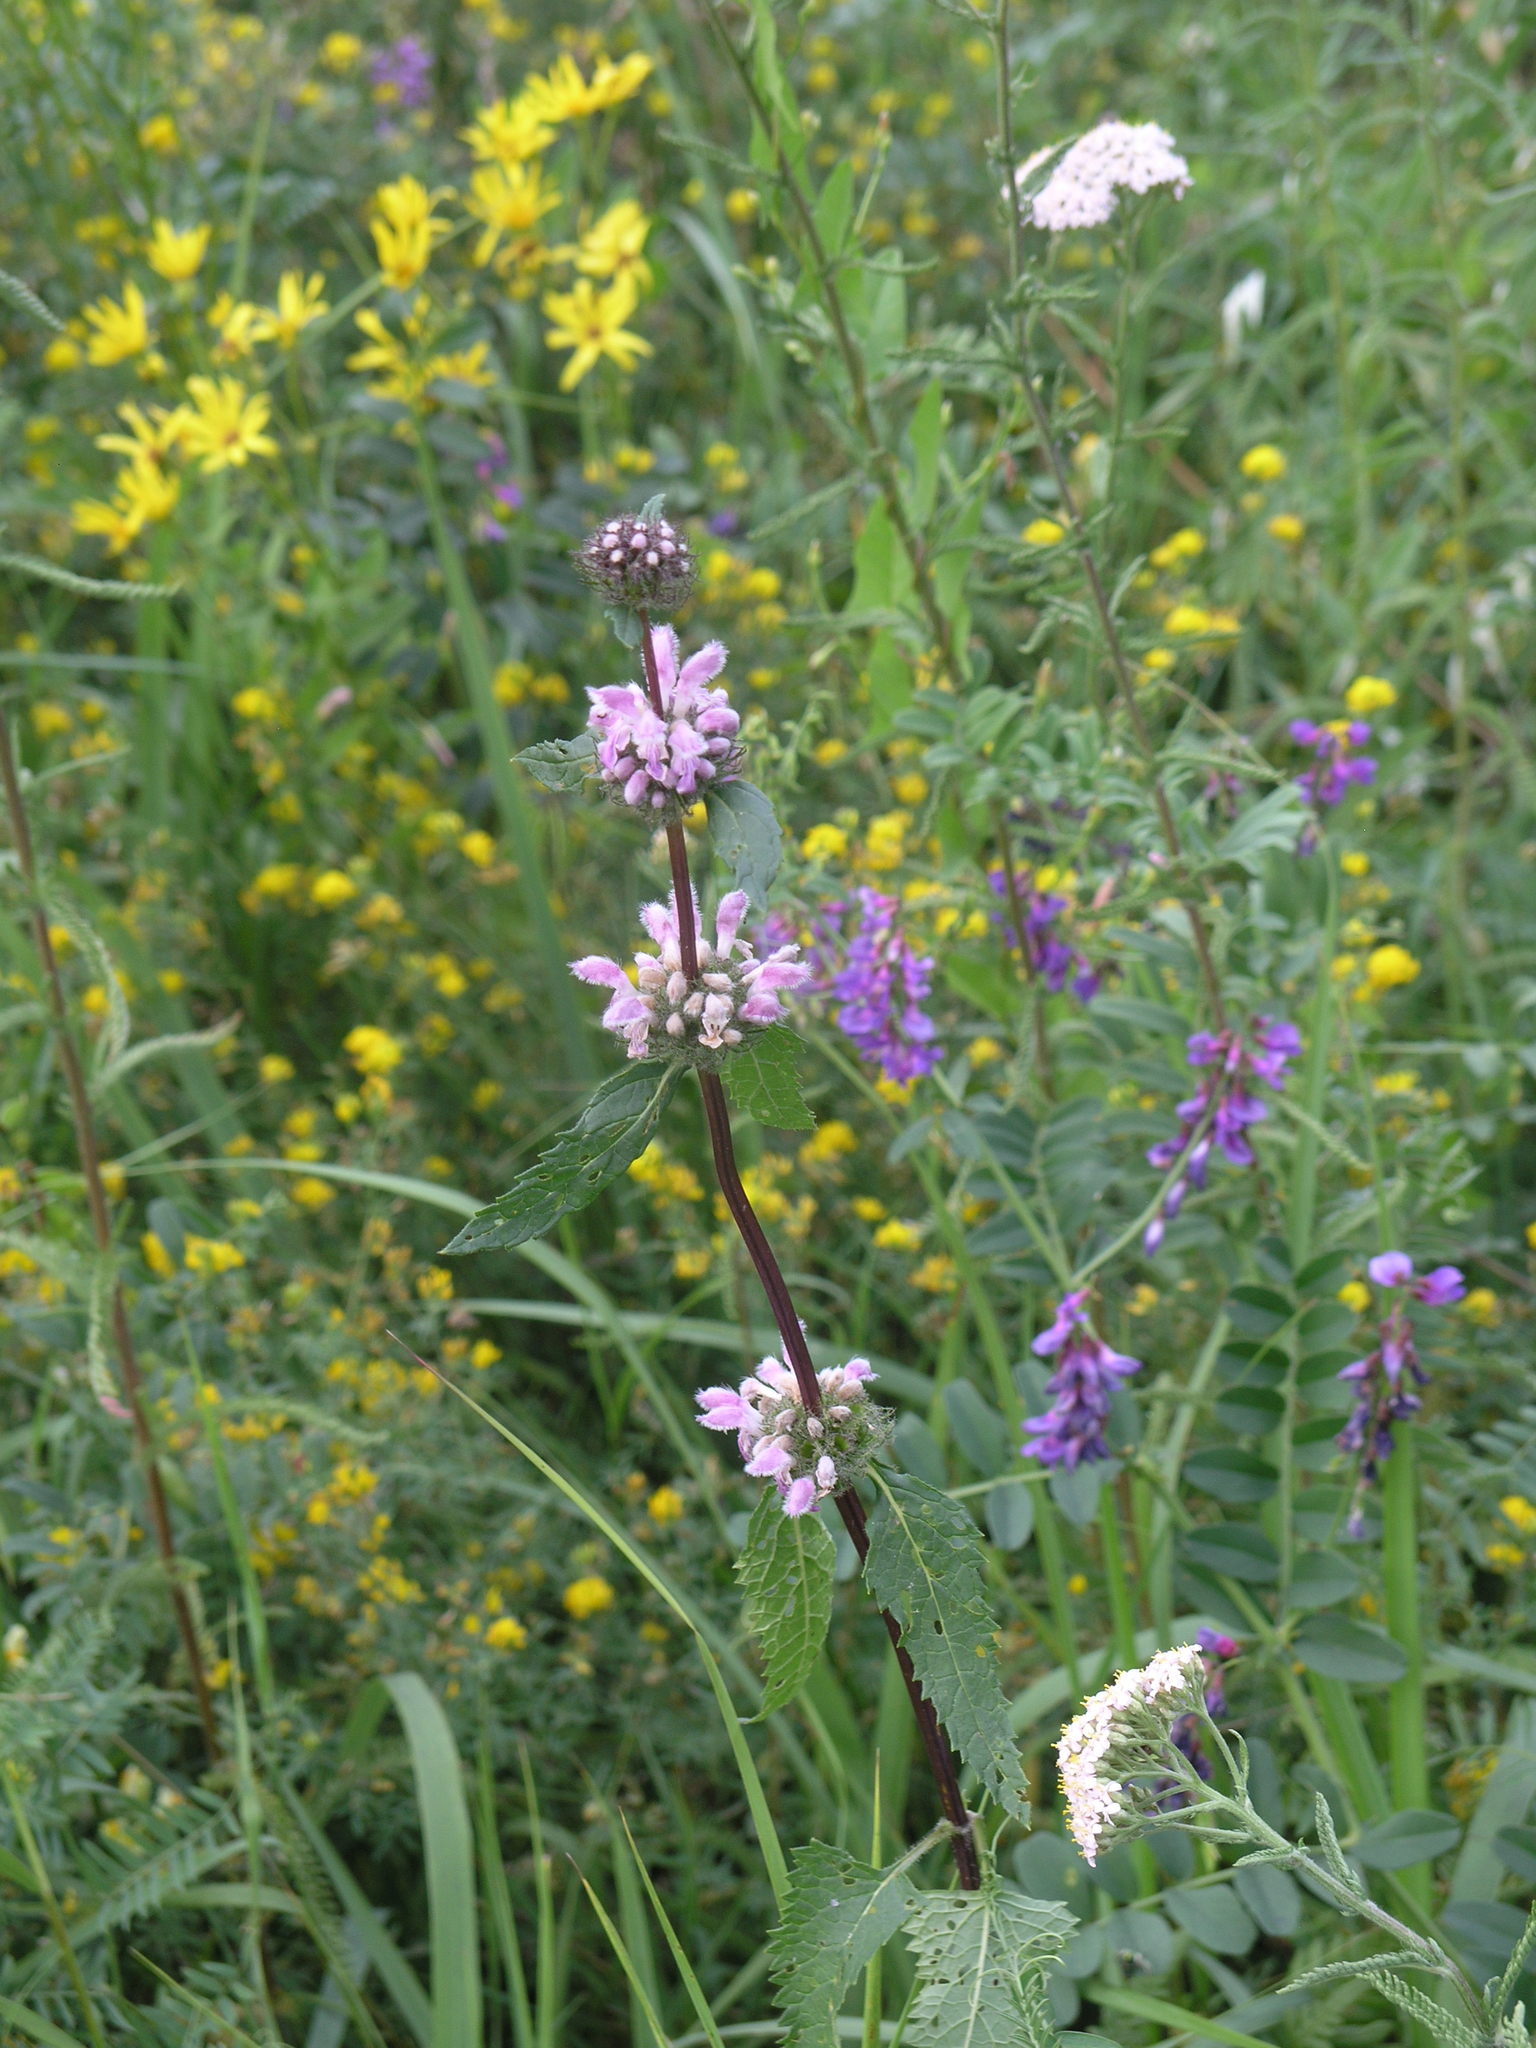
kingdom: Plantae
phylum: Tracheophyta
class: Magnoliopsida
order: Lamiales
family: Lamiaceae
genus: Phlomoides
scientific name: Phlomoides tuberosa
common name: Tuberous jerusalem sage
